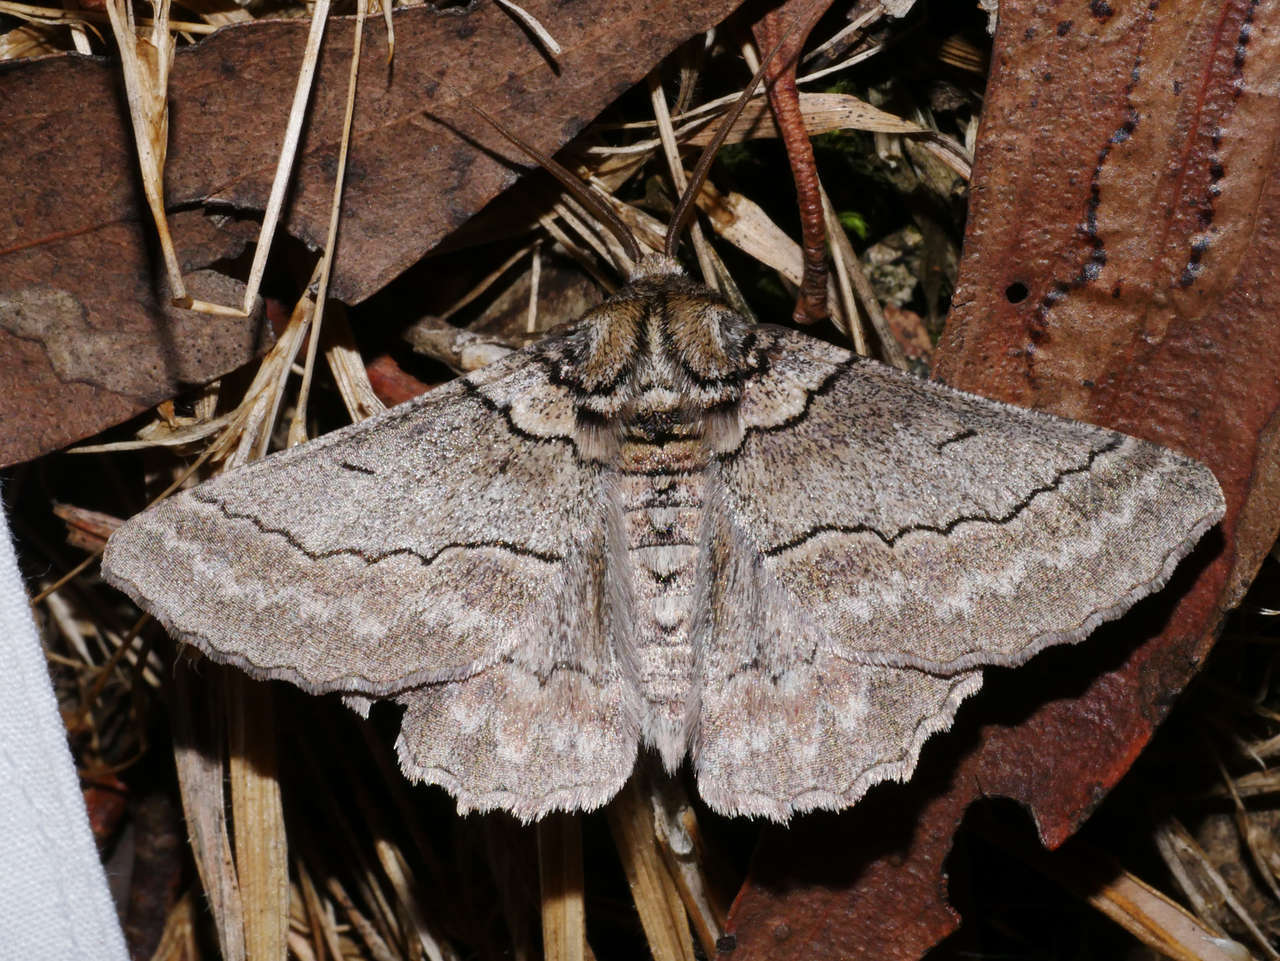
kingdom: Animalia
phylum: Arthropoda
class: Insecta
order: Lepidoptera
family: Geometridae
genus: Hypobapta
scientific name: Hypobapta tachyhalotaria
